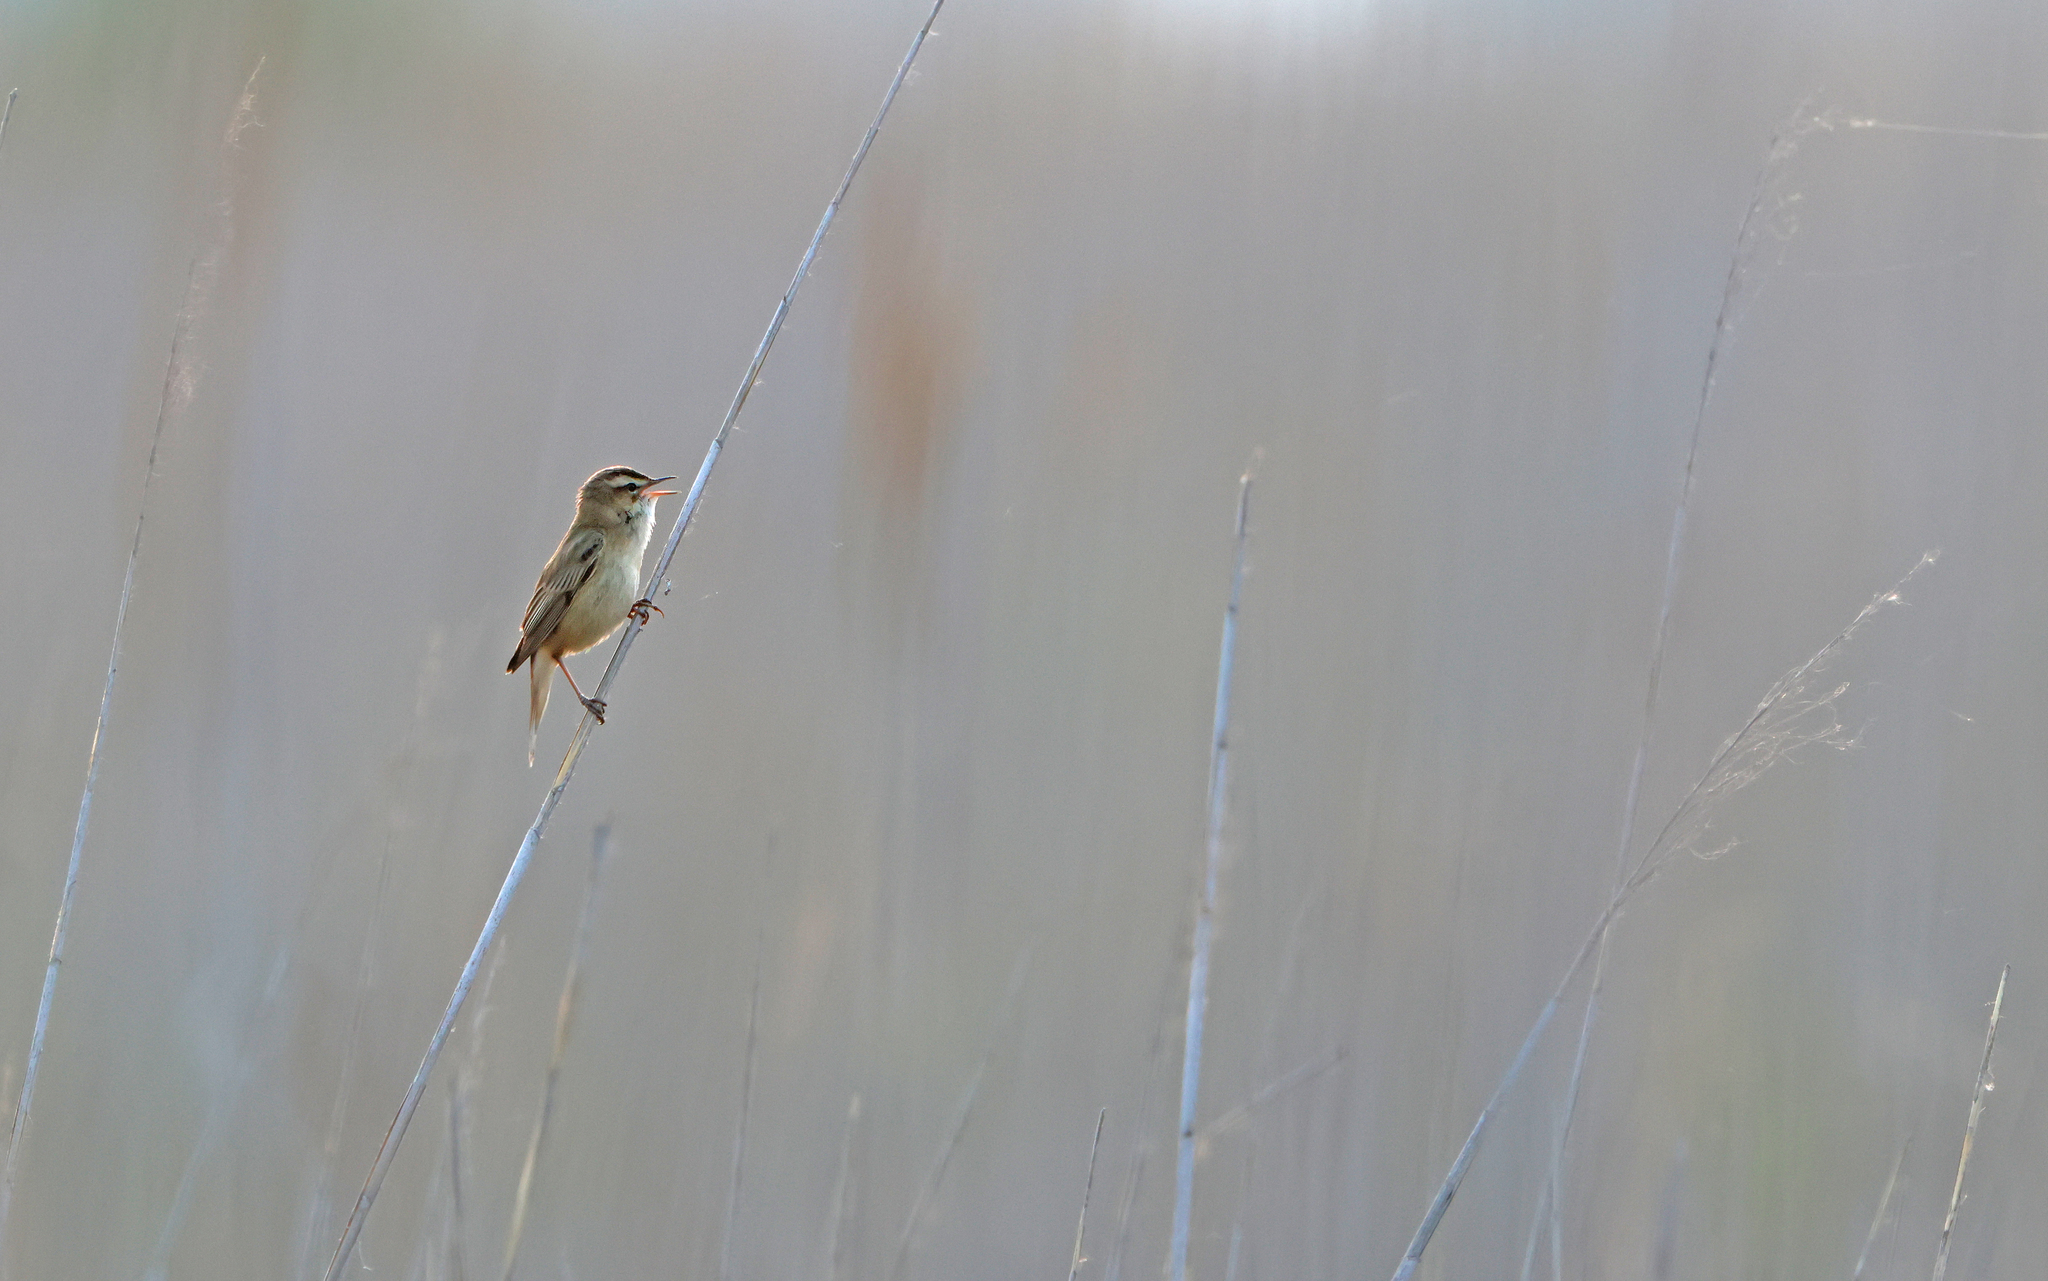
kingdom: Animalia
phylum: Chordata
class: Aves
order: Passeriformes
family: Acrocephalidae
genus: Acrocephalus
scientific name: Acrocephalus schoenobaenus
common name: Sedge warbler
